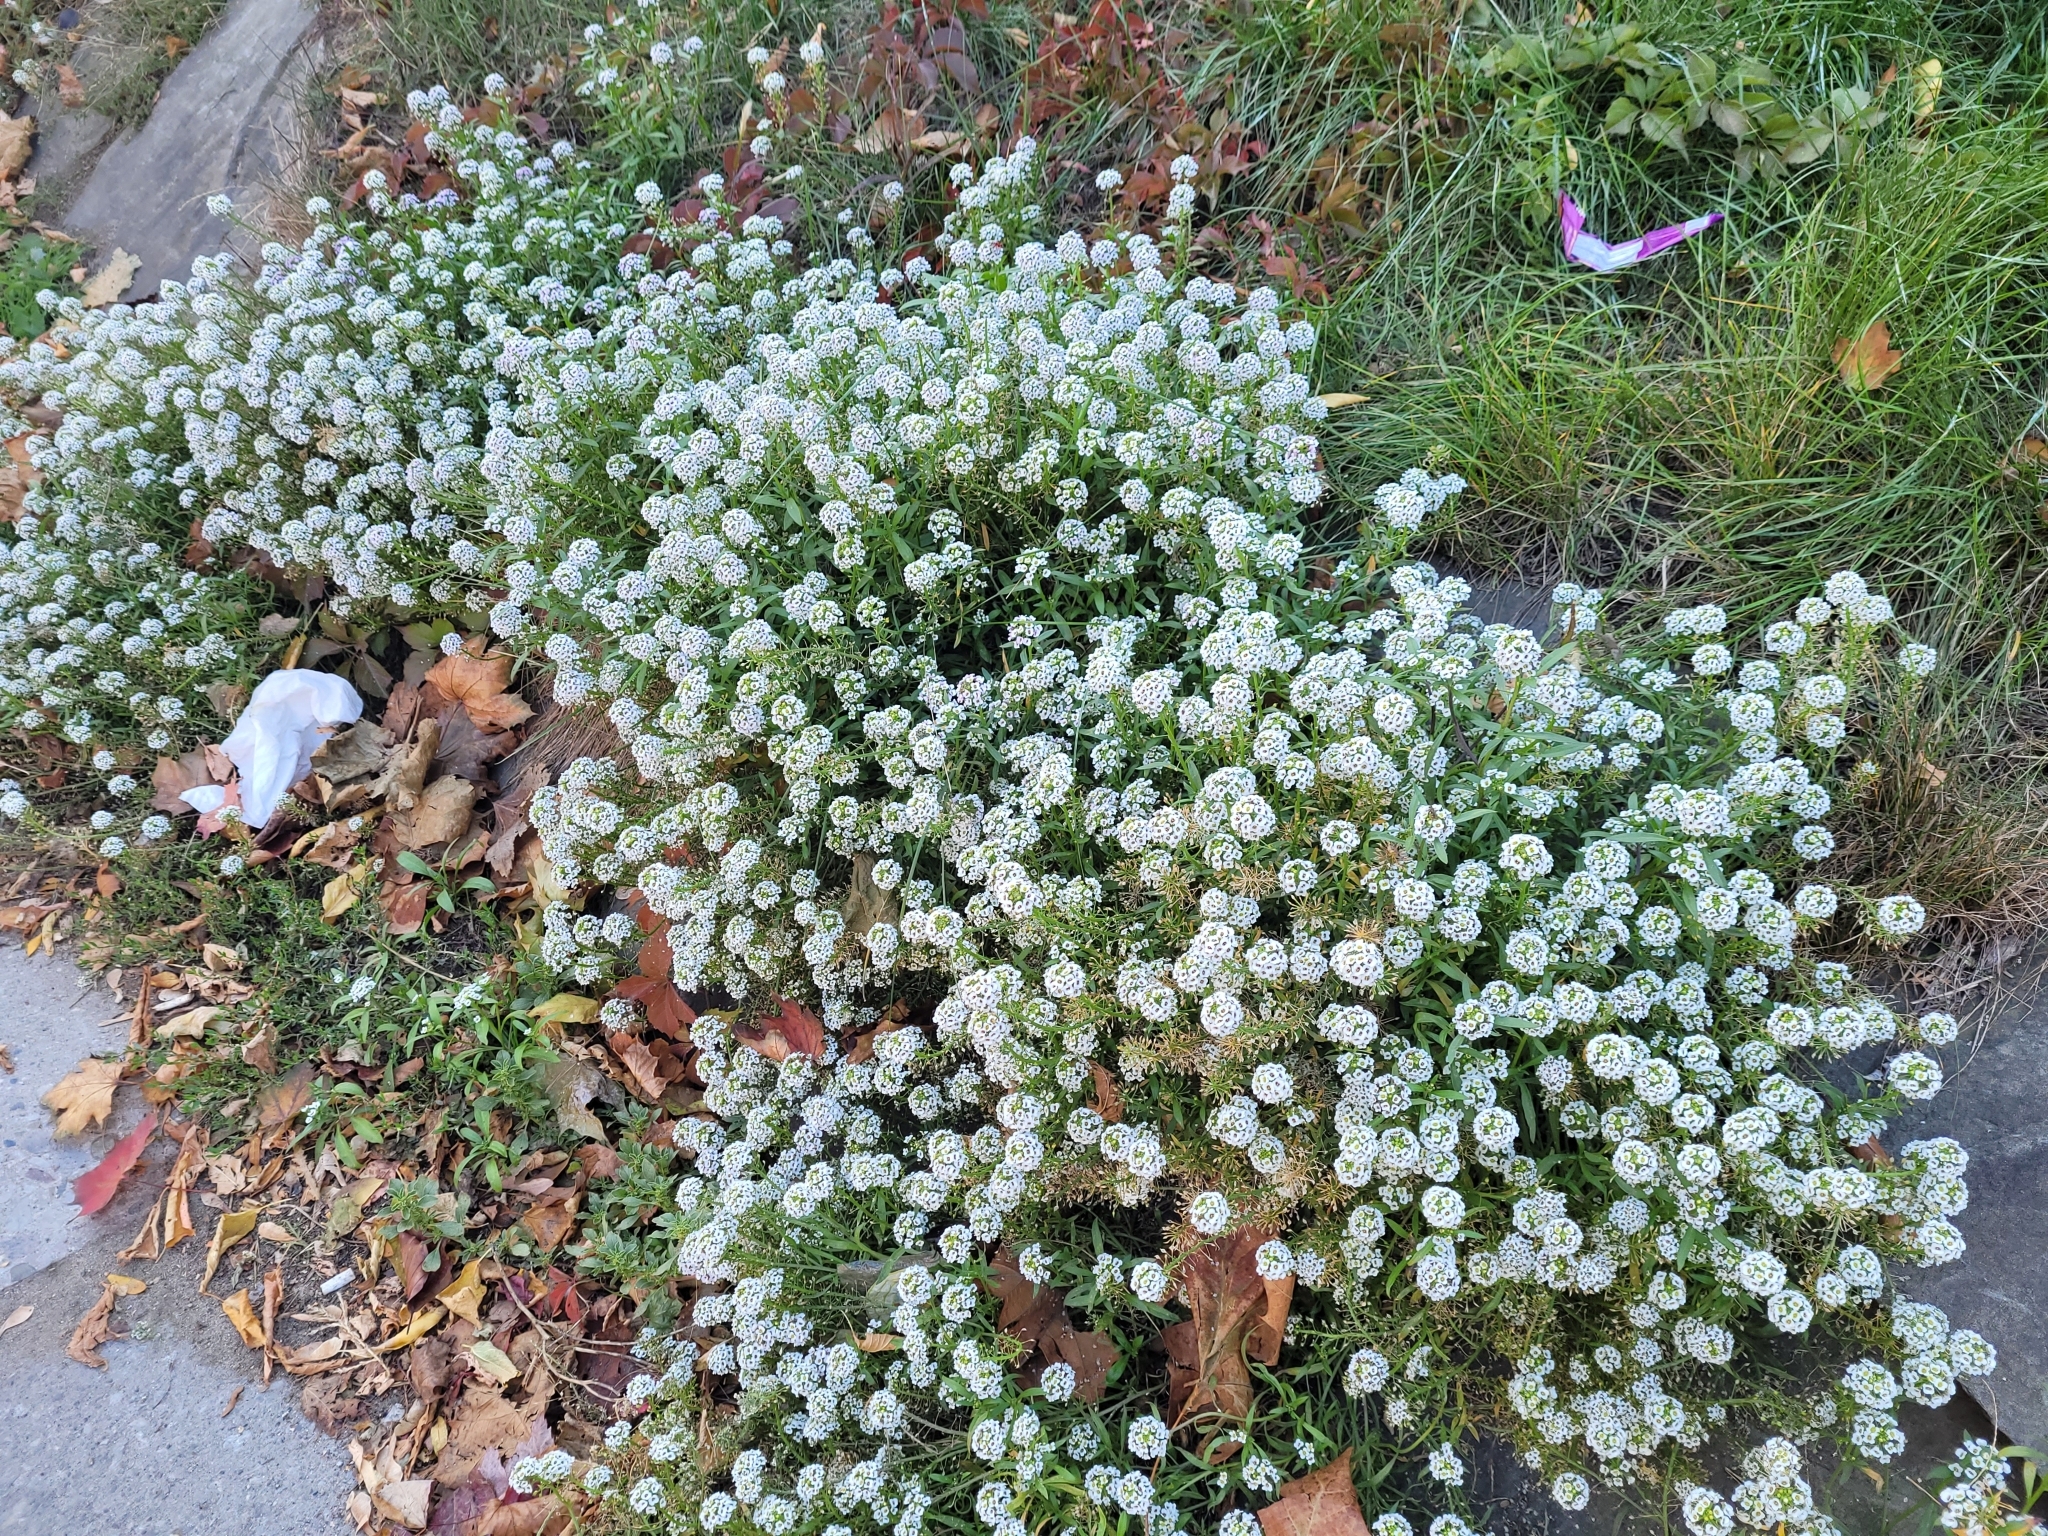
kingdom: Plantae
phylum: Tracheophyta
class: Magnoliopsida
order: Brassicales
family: Brassicaceae
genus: Lobularia
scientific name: Lobularia maritima
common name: Sweet alison
